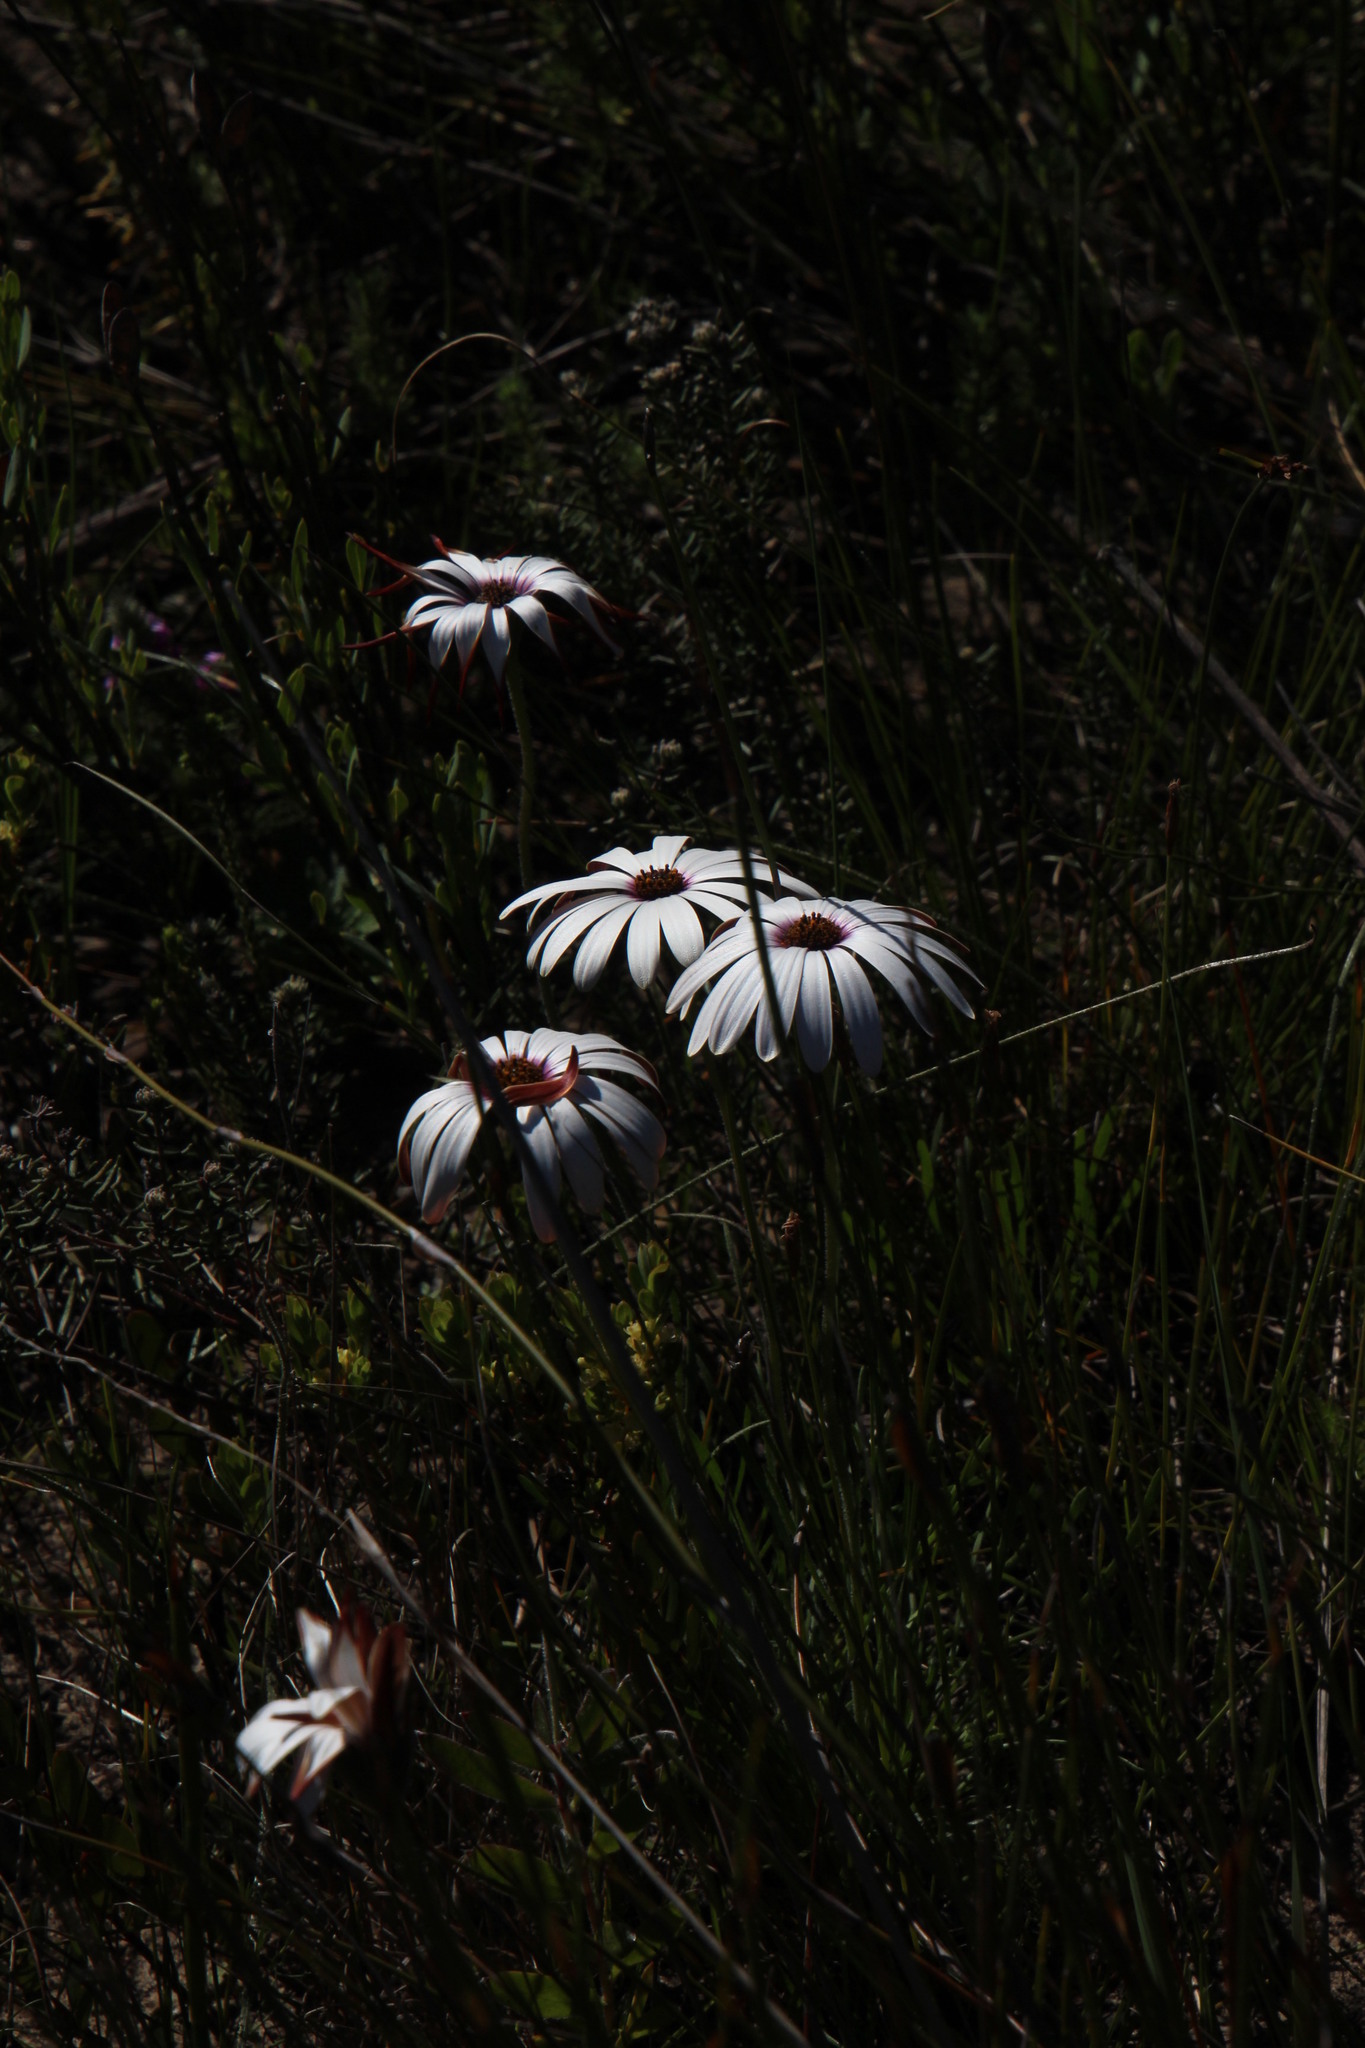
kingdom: Plantae
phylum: Tracheophyta
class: Magnoliopsida
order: Asterales
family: Asteraceae
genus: Dimorphotheca
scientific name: Dimorphotheca nudicaulis
